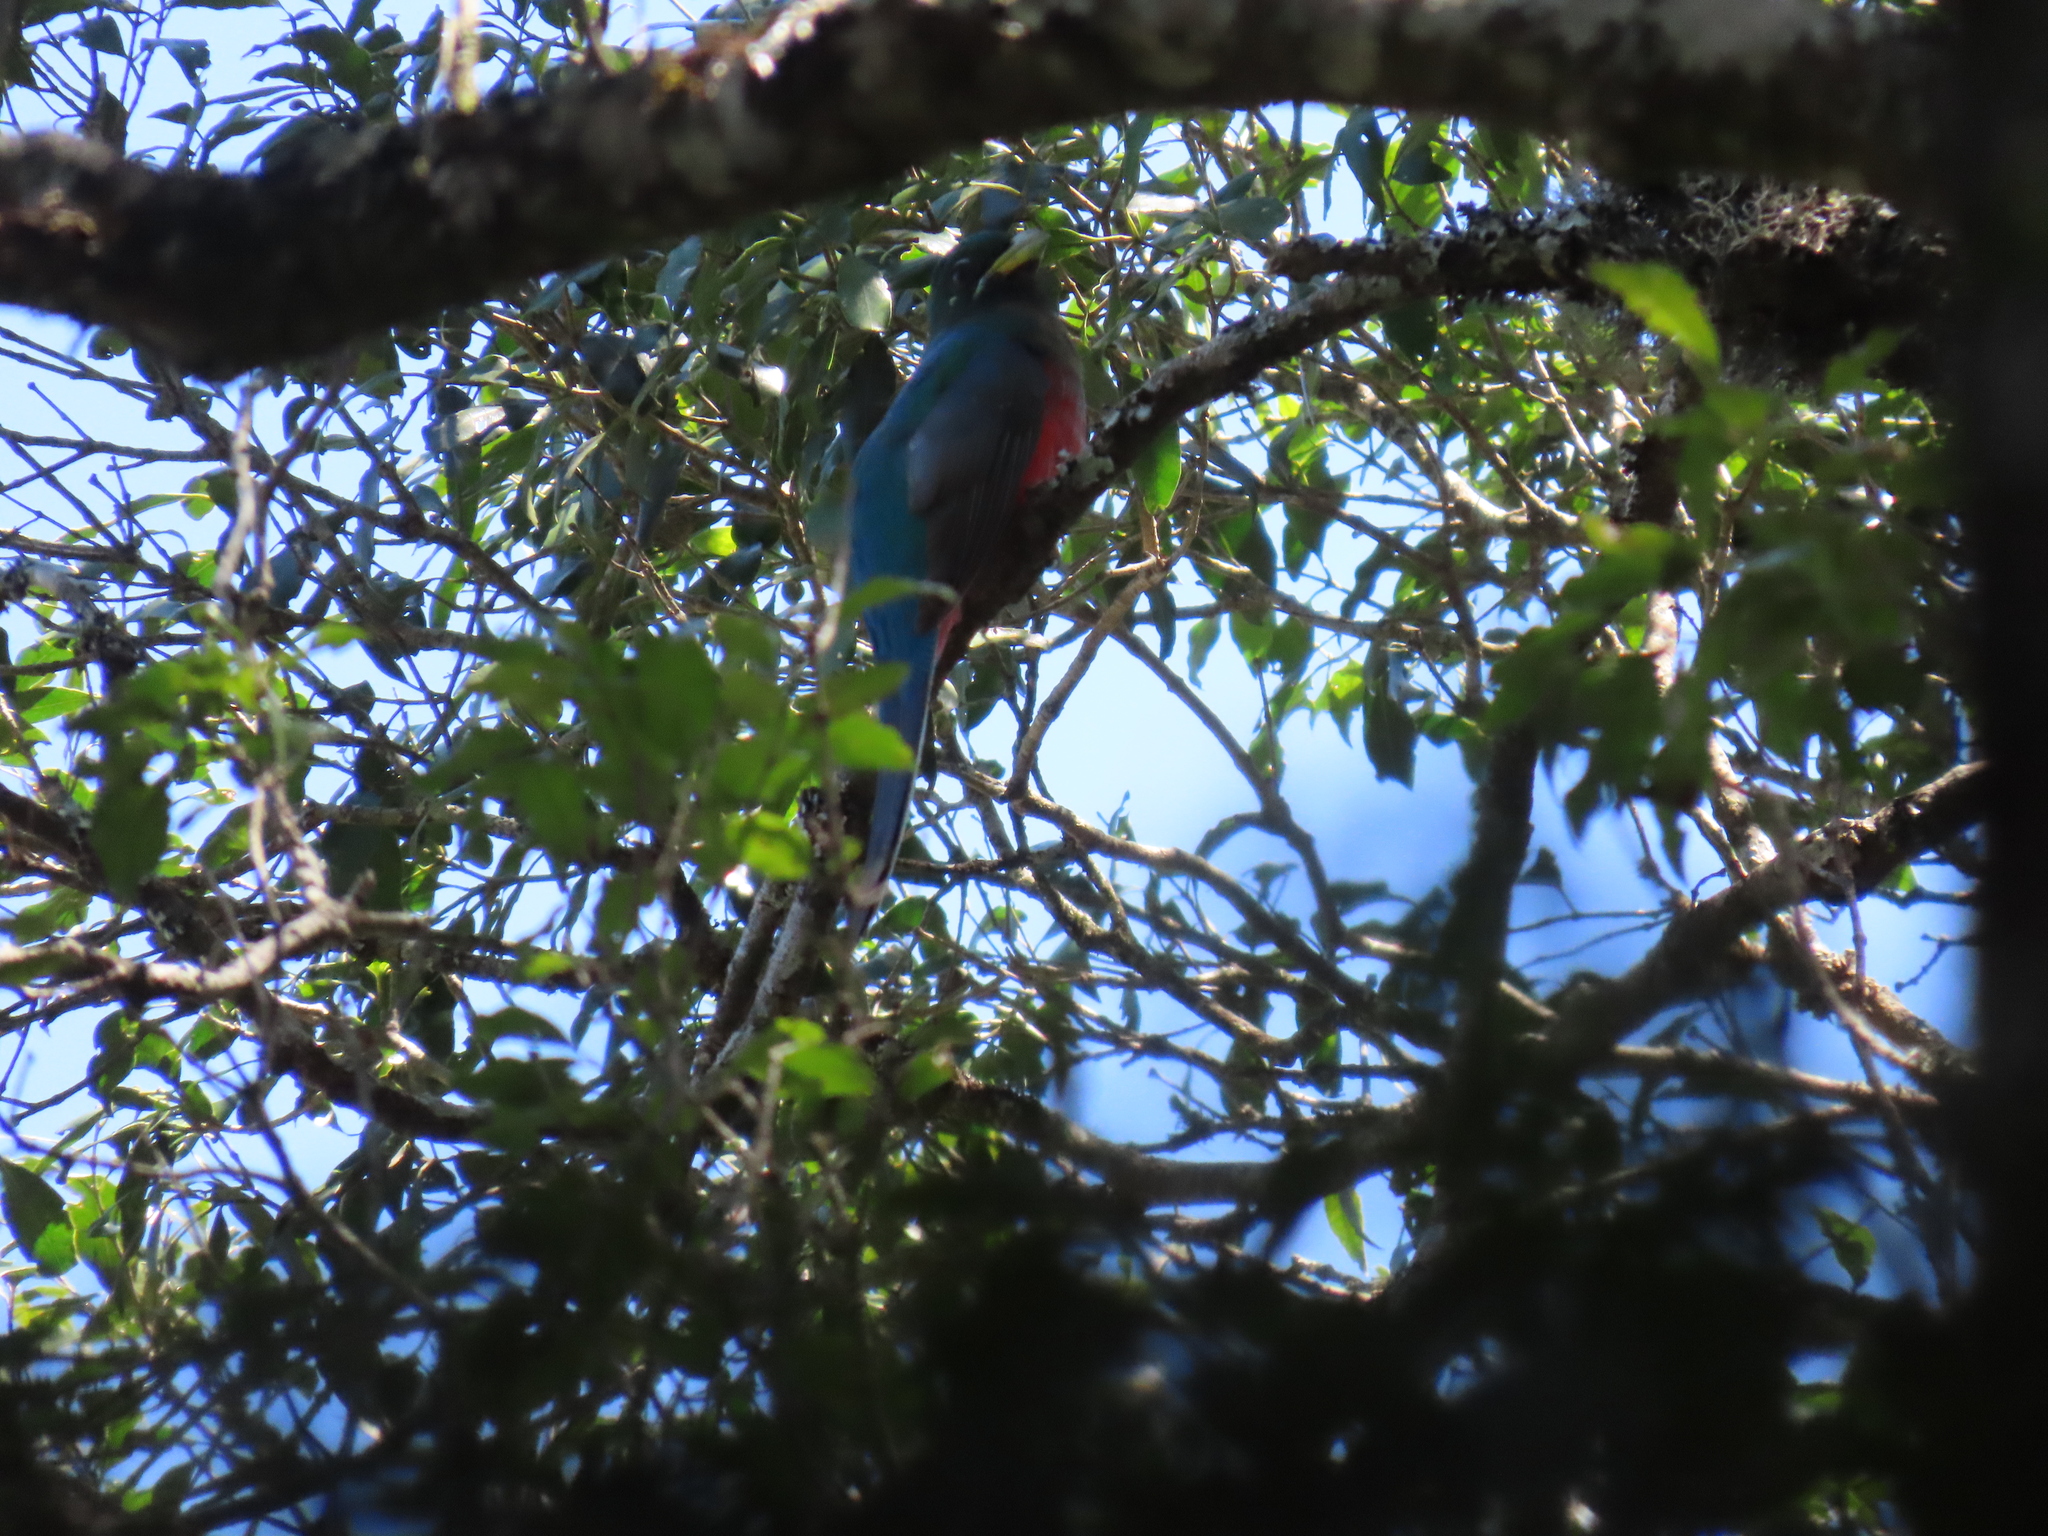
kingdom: Animalia
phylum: Chordata
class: Aves
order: Trogoniformes
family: Trogonidae
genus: Apaloderma
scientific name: Apaloderma narina
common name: Narina trogon
